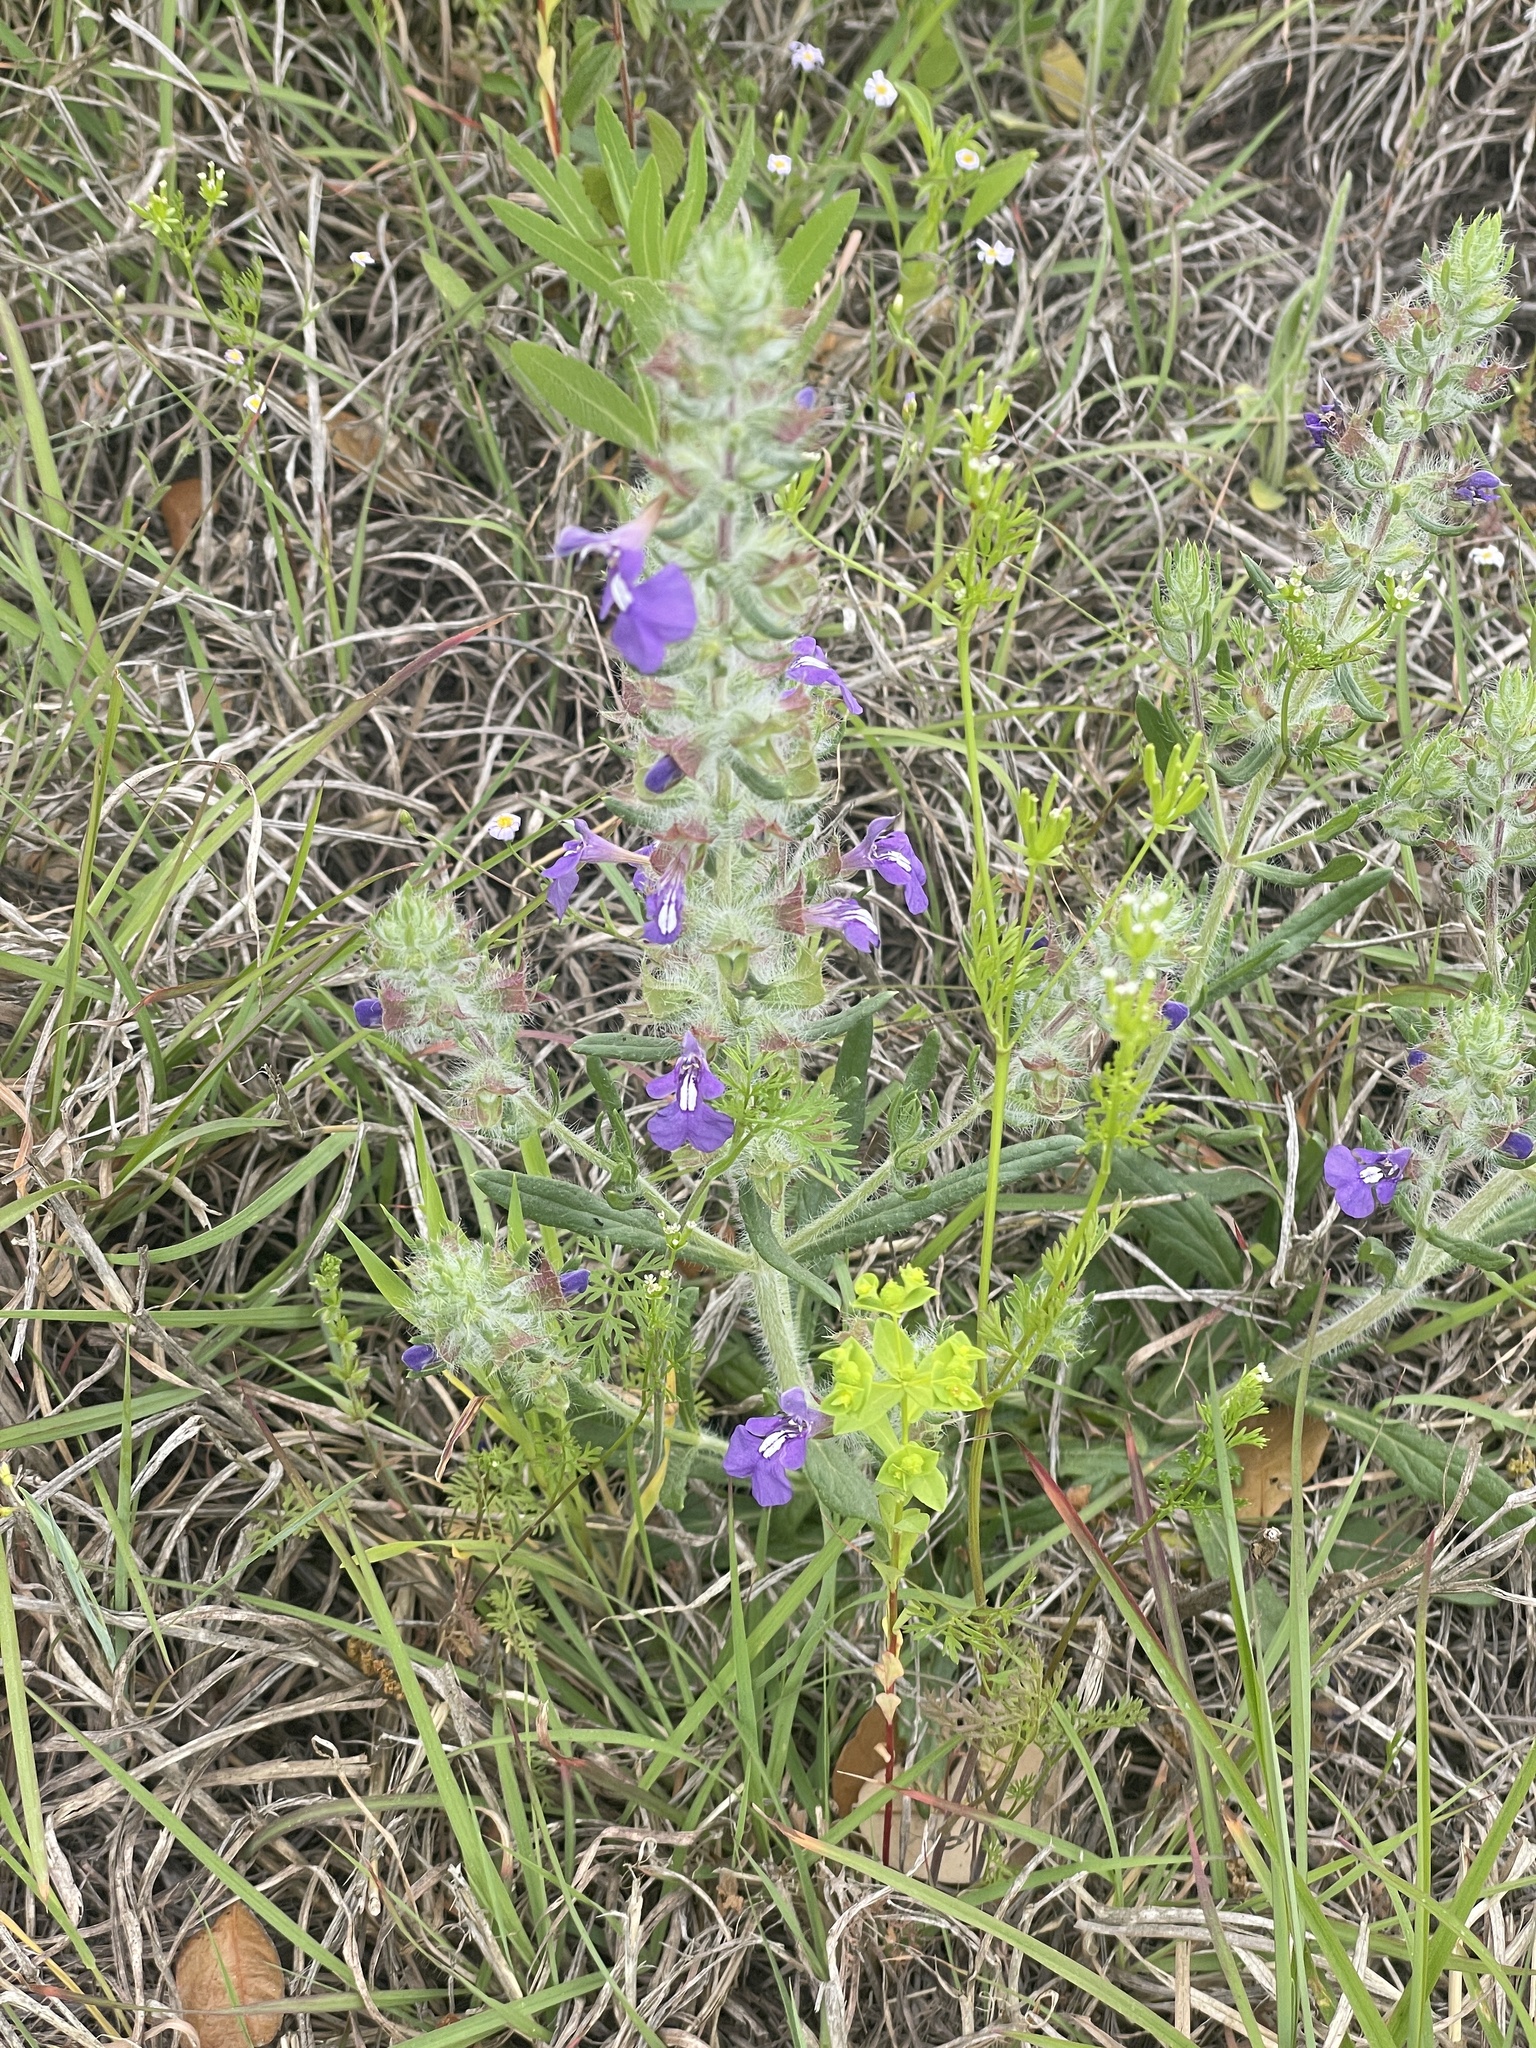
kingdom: Plantae
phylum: Tracheophyta
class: Magnoliopsida
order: Lamiales
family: Lamiaceae
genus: Salvia
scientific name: Salvia texana
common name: Texas sage
